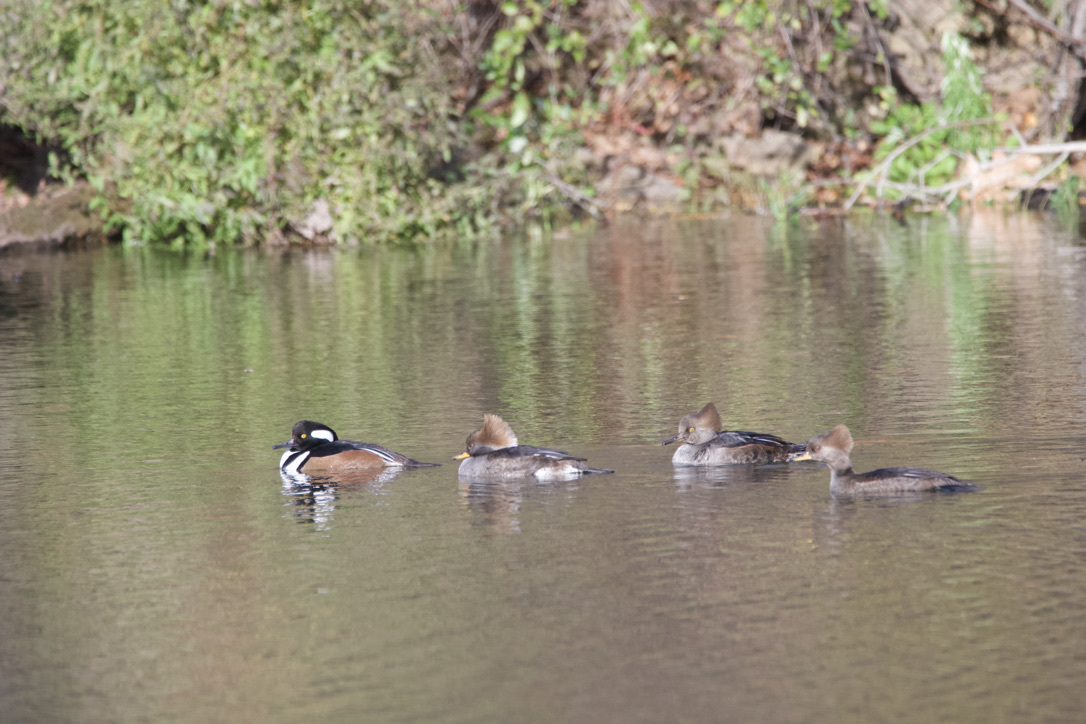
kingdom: Animalia
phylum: Chordata
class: Aves
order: Anseriformes
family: Anatidae
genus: Lophodytes
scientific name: Lophodytes cucullatus
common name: Hooded merganser
